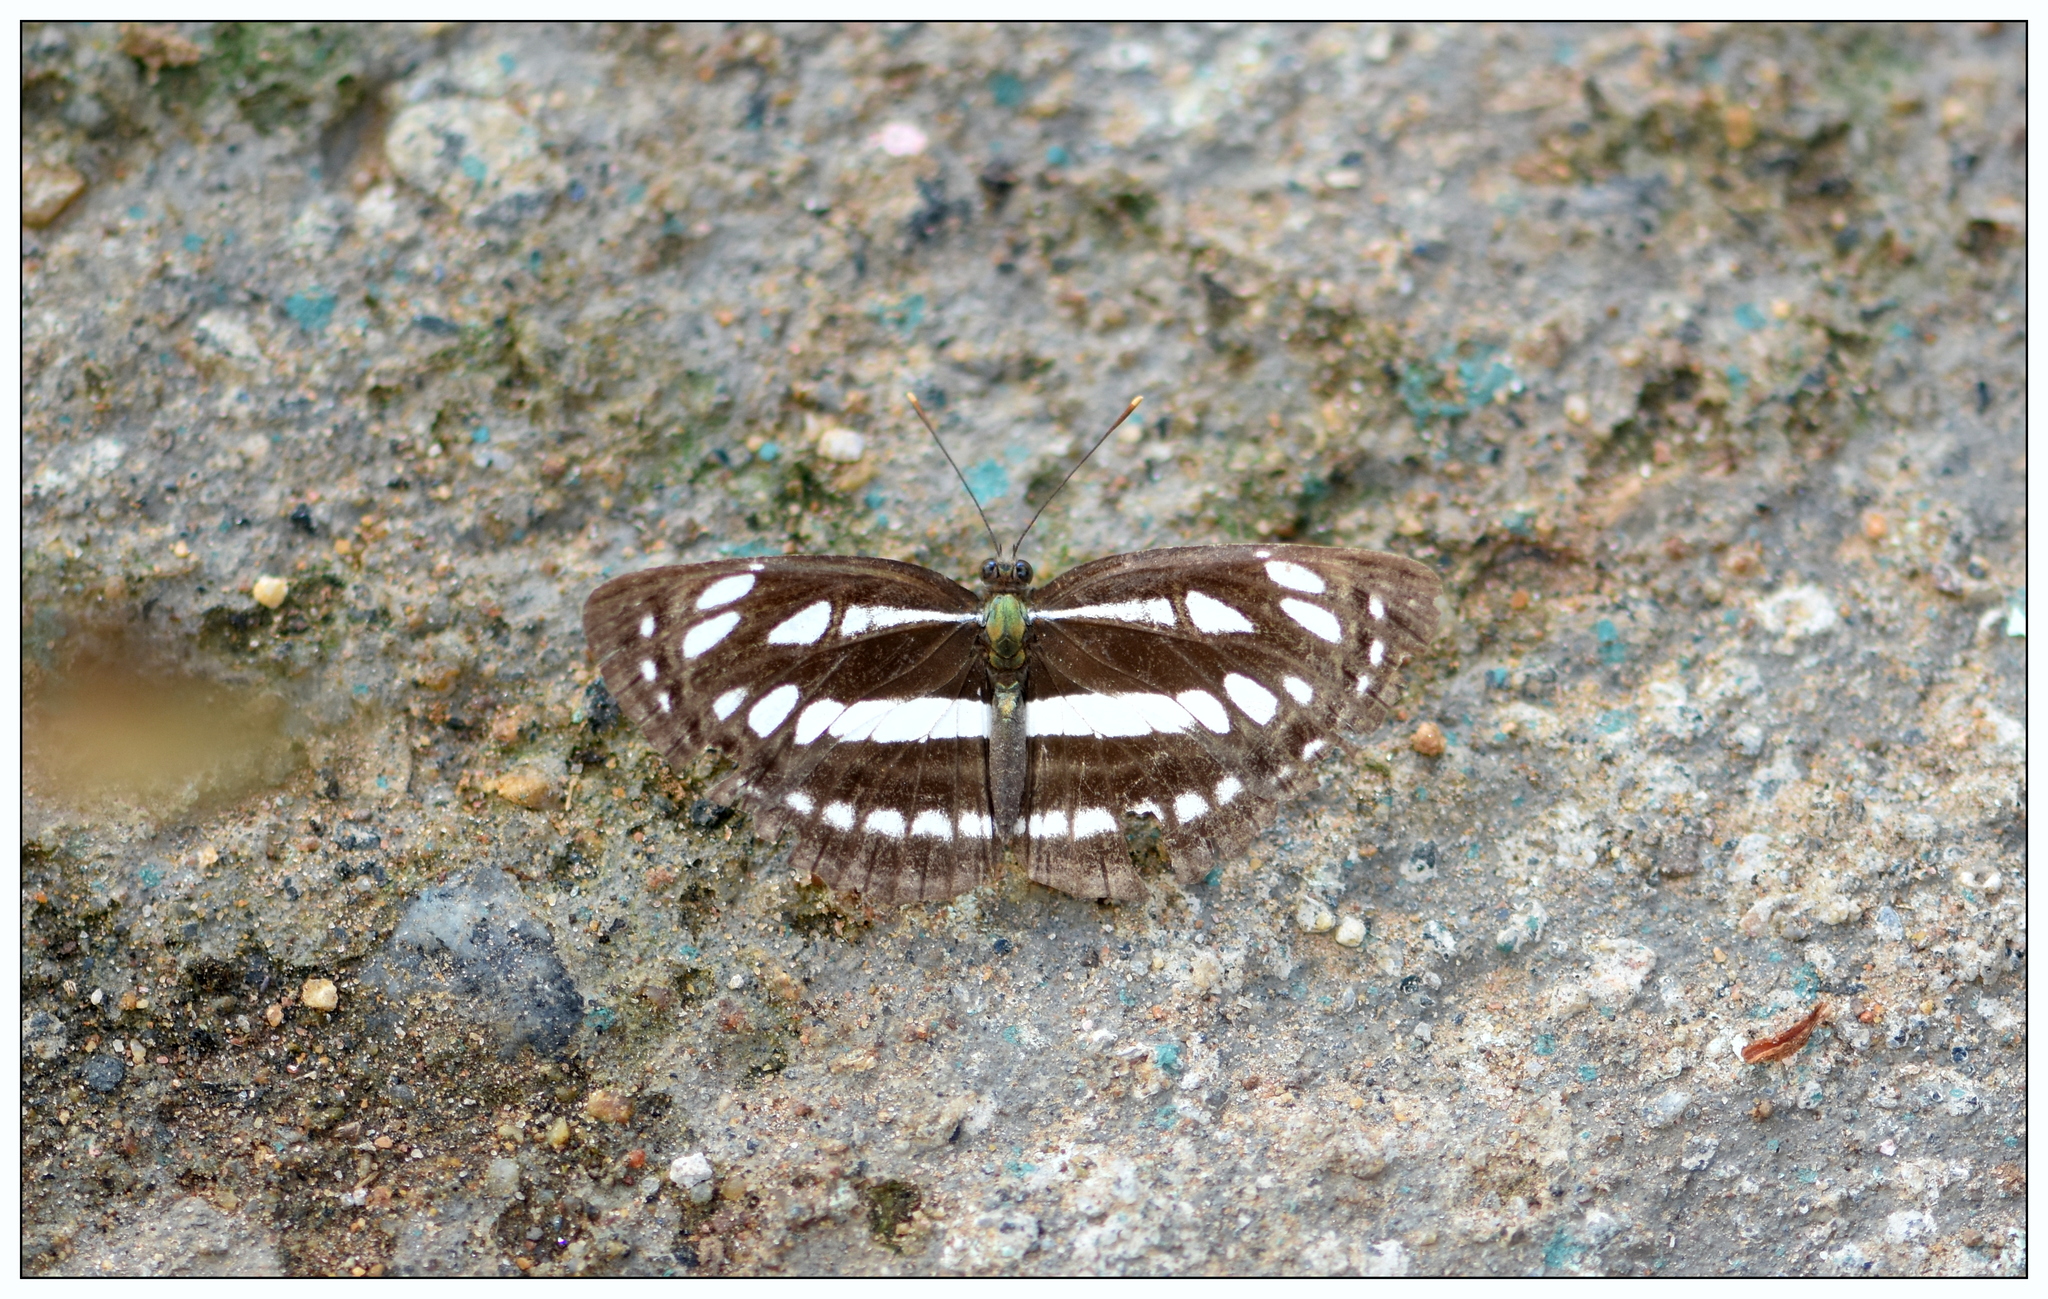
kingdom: Animalia
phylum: Arthropoda
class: Insecta
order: Lepidoptera
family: Nymphalidae
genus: Neptis
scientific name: Neptis hylas
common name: Common sailer
